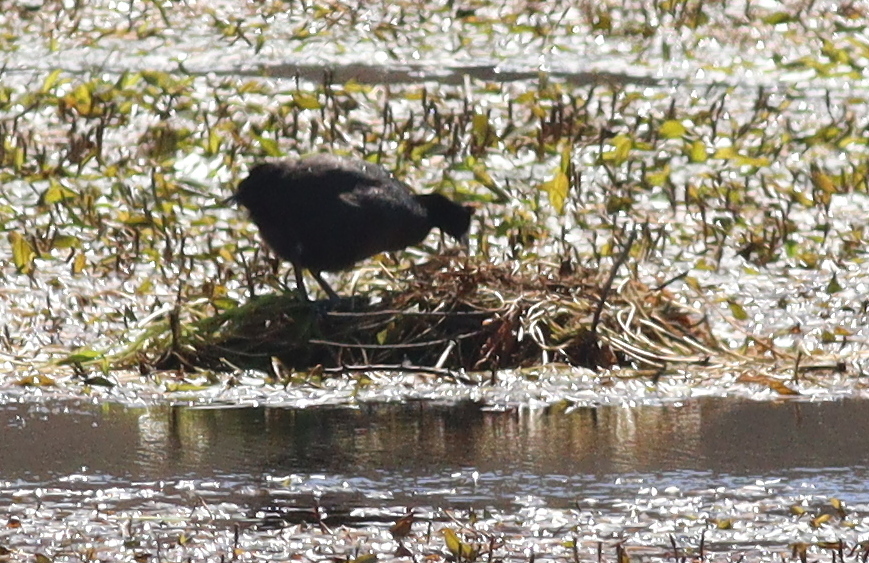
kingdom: Animalia
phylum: Chordata
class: Aves
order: Gruiformes
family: Rallidae
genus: Fulica
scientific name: Fulica cristata
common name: Red-knobbed coot
